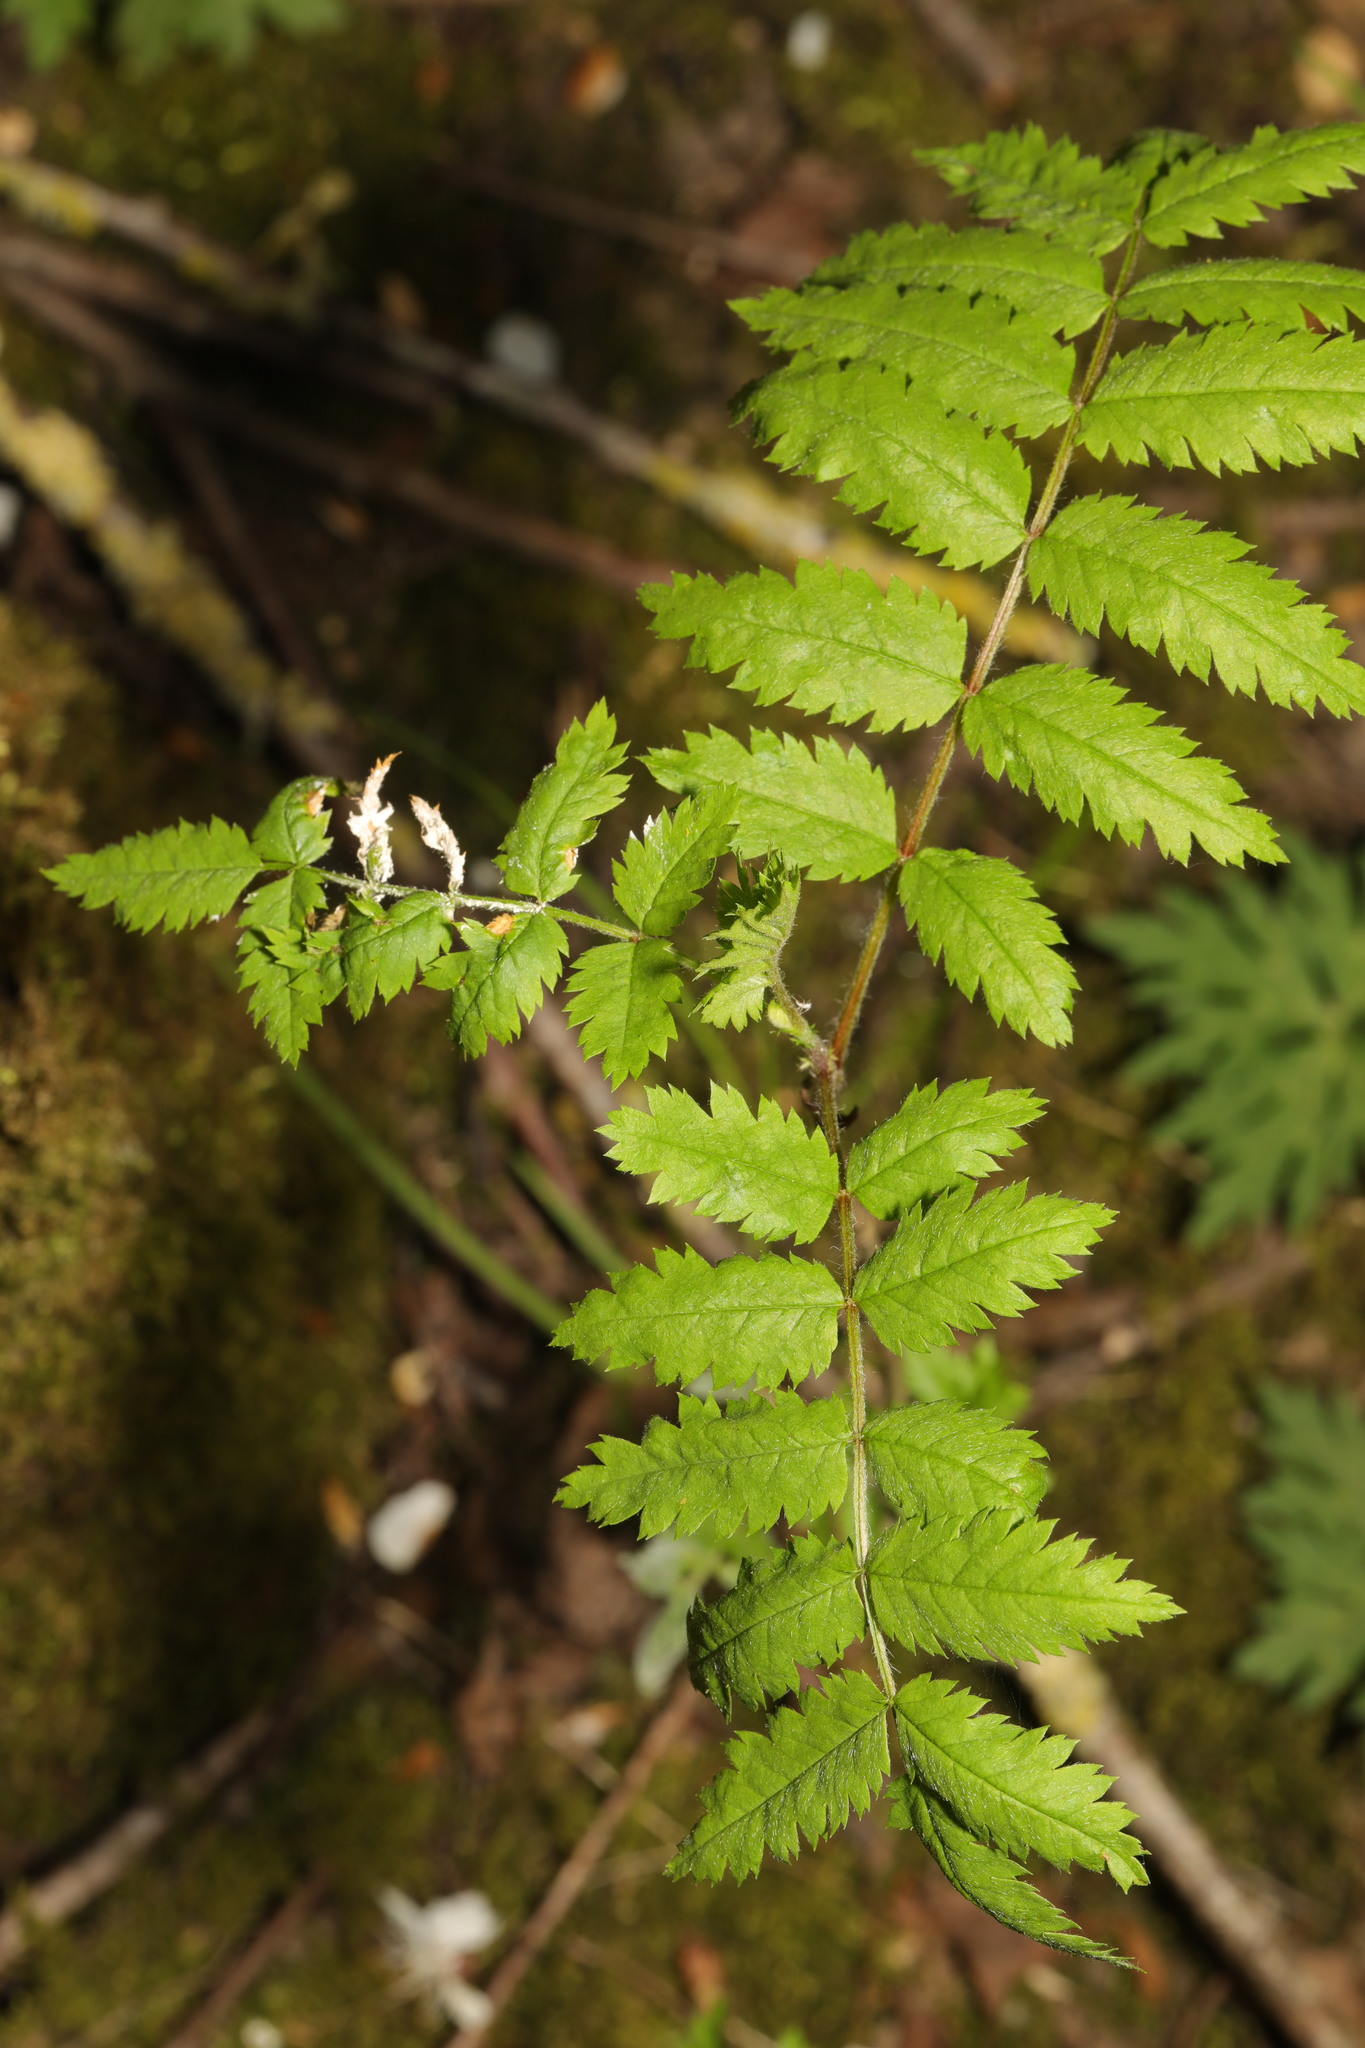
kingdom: Plantae
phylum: Tracheophyta
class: Magnoliopsida
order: Rosales
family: Rosaceae
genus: Sorbus
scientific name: Sorbus aucuparia
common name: Rowan
